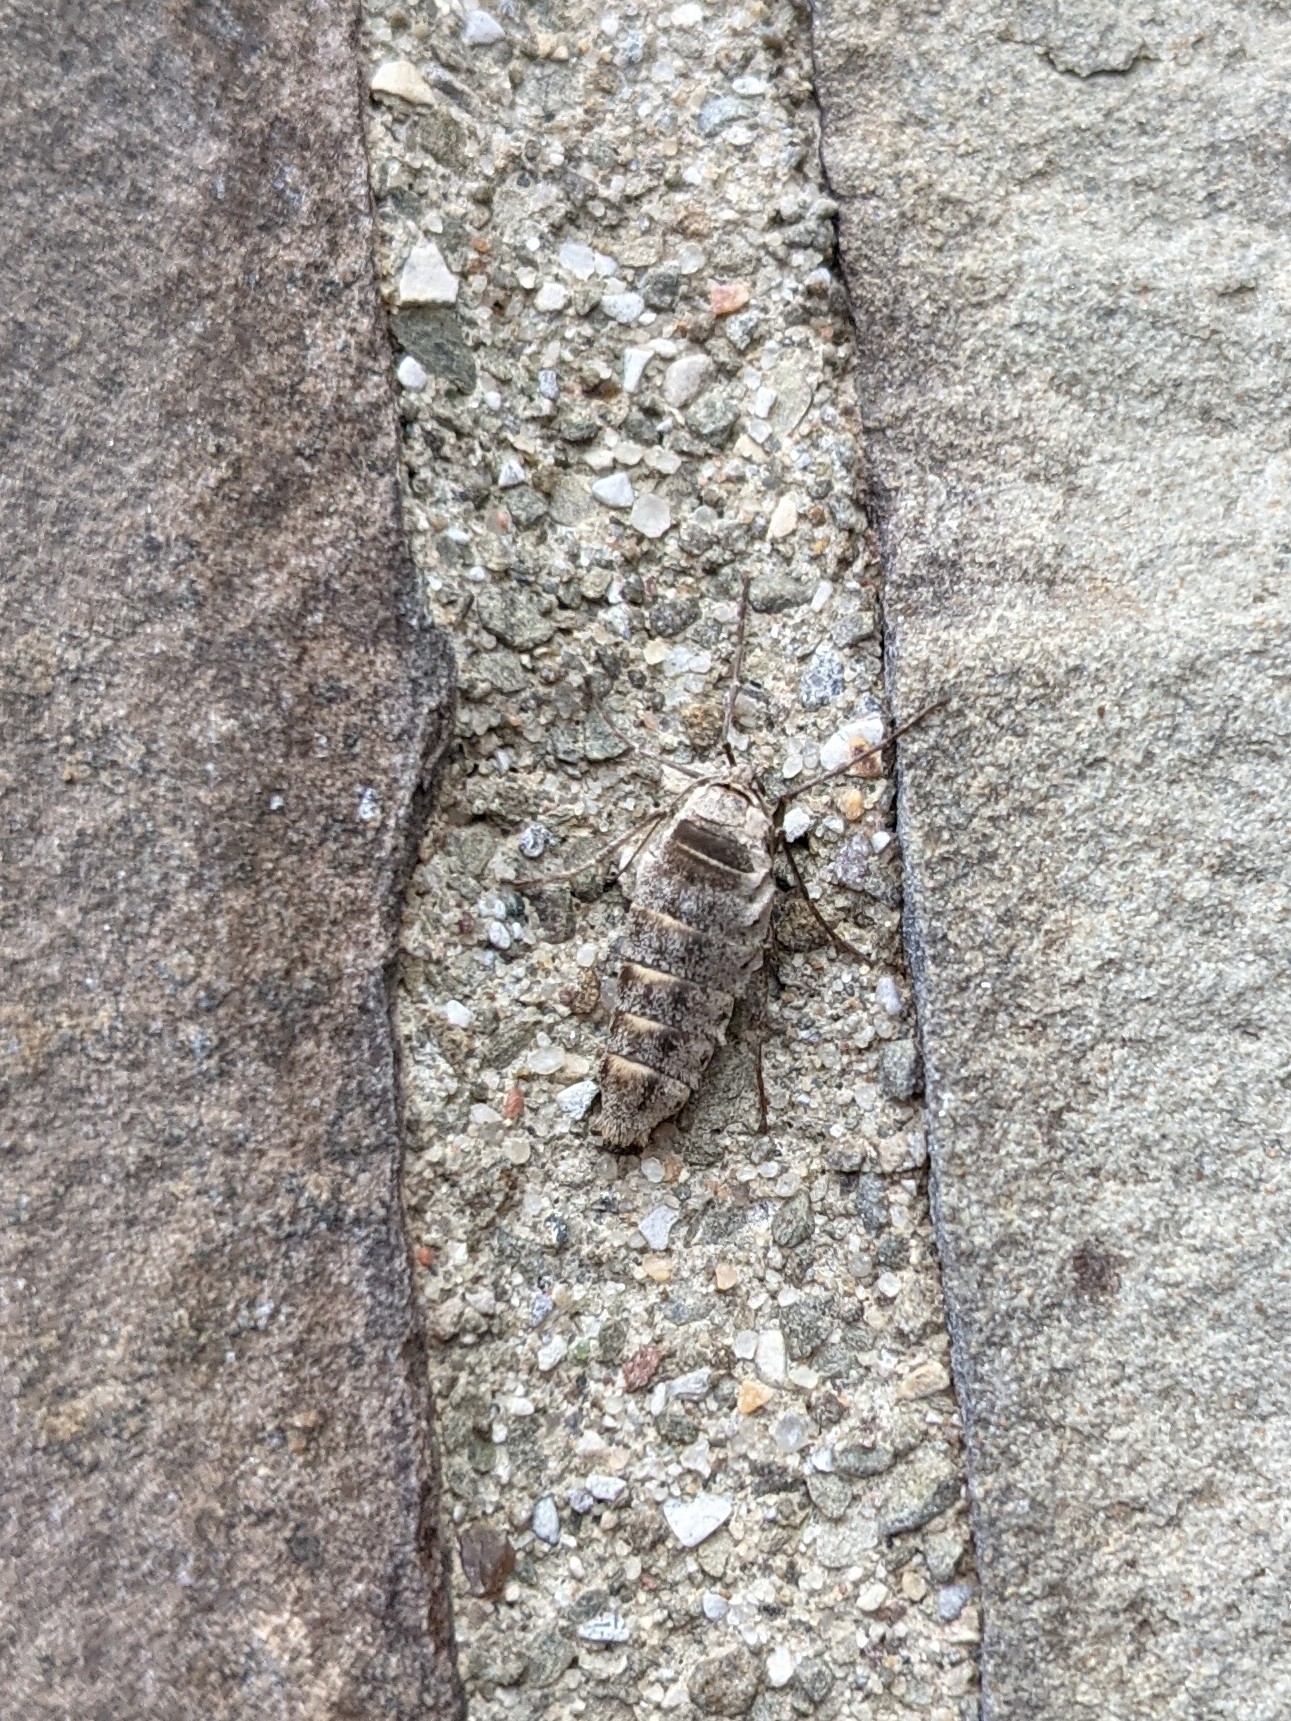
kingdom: Animalia
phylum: Arthropoda
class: Insecta
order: Lepidoptera
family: Geometridae
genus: Alsophila
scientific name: Alsophila pometaria
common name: Fall cankerworm
